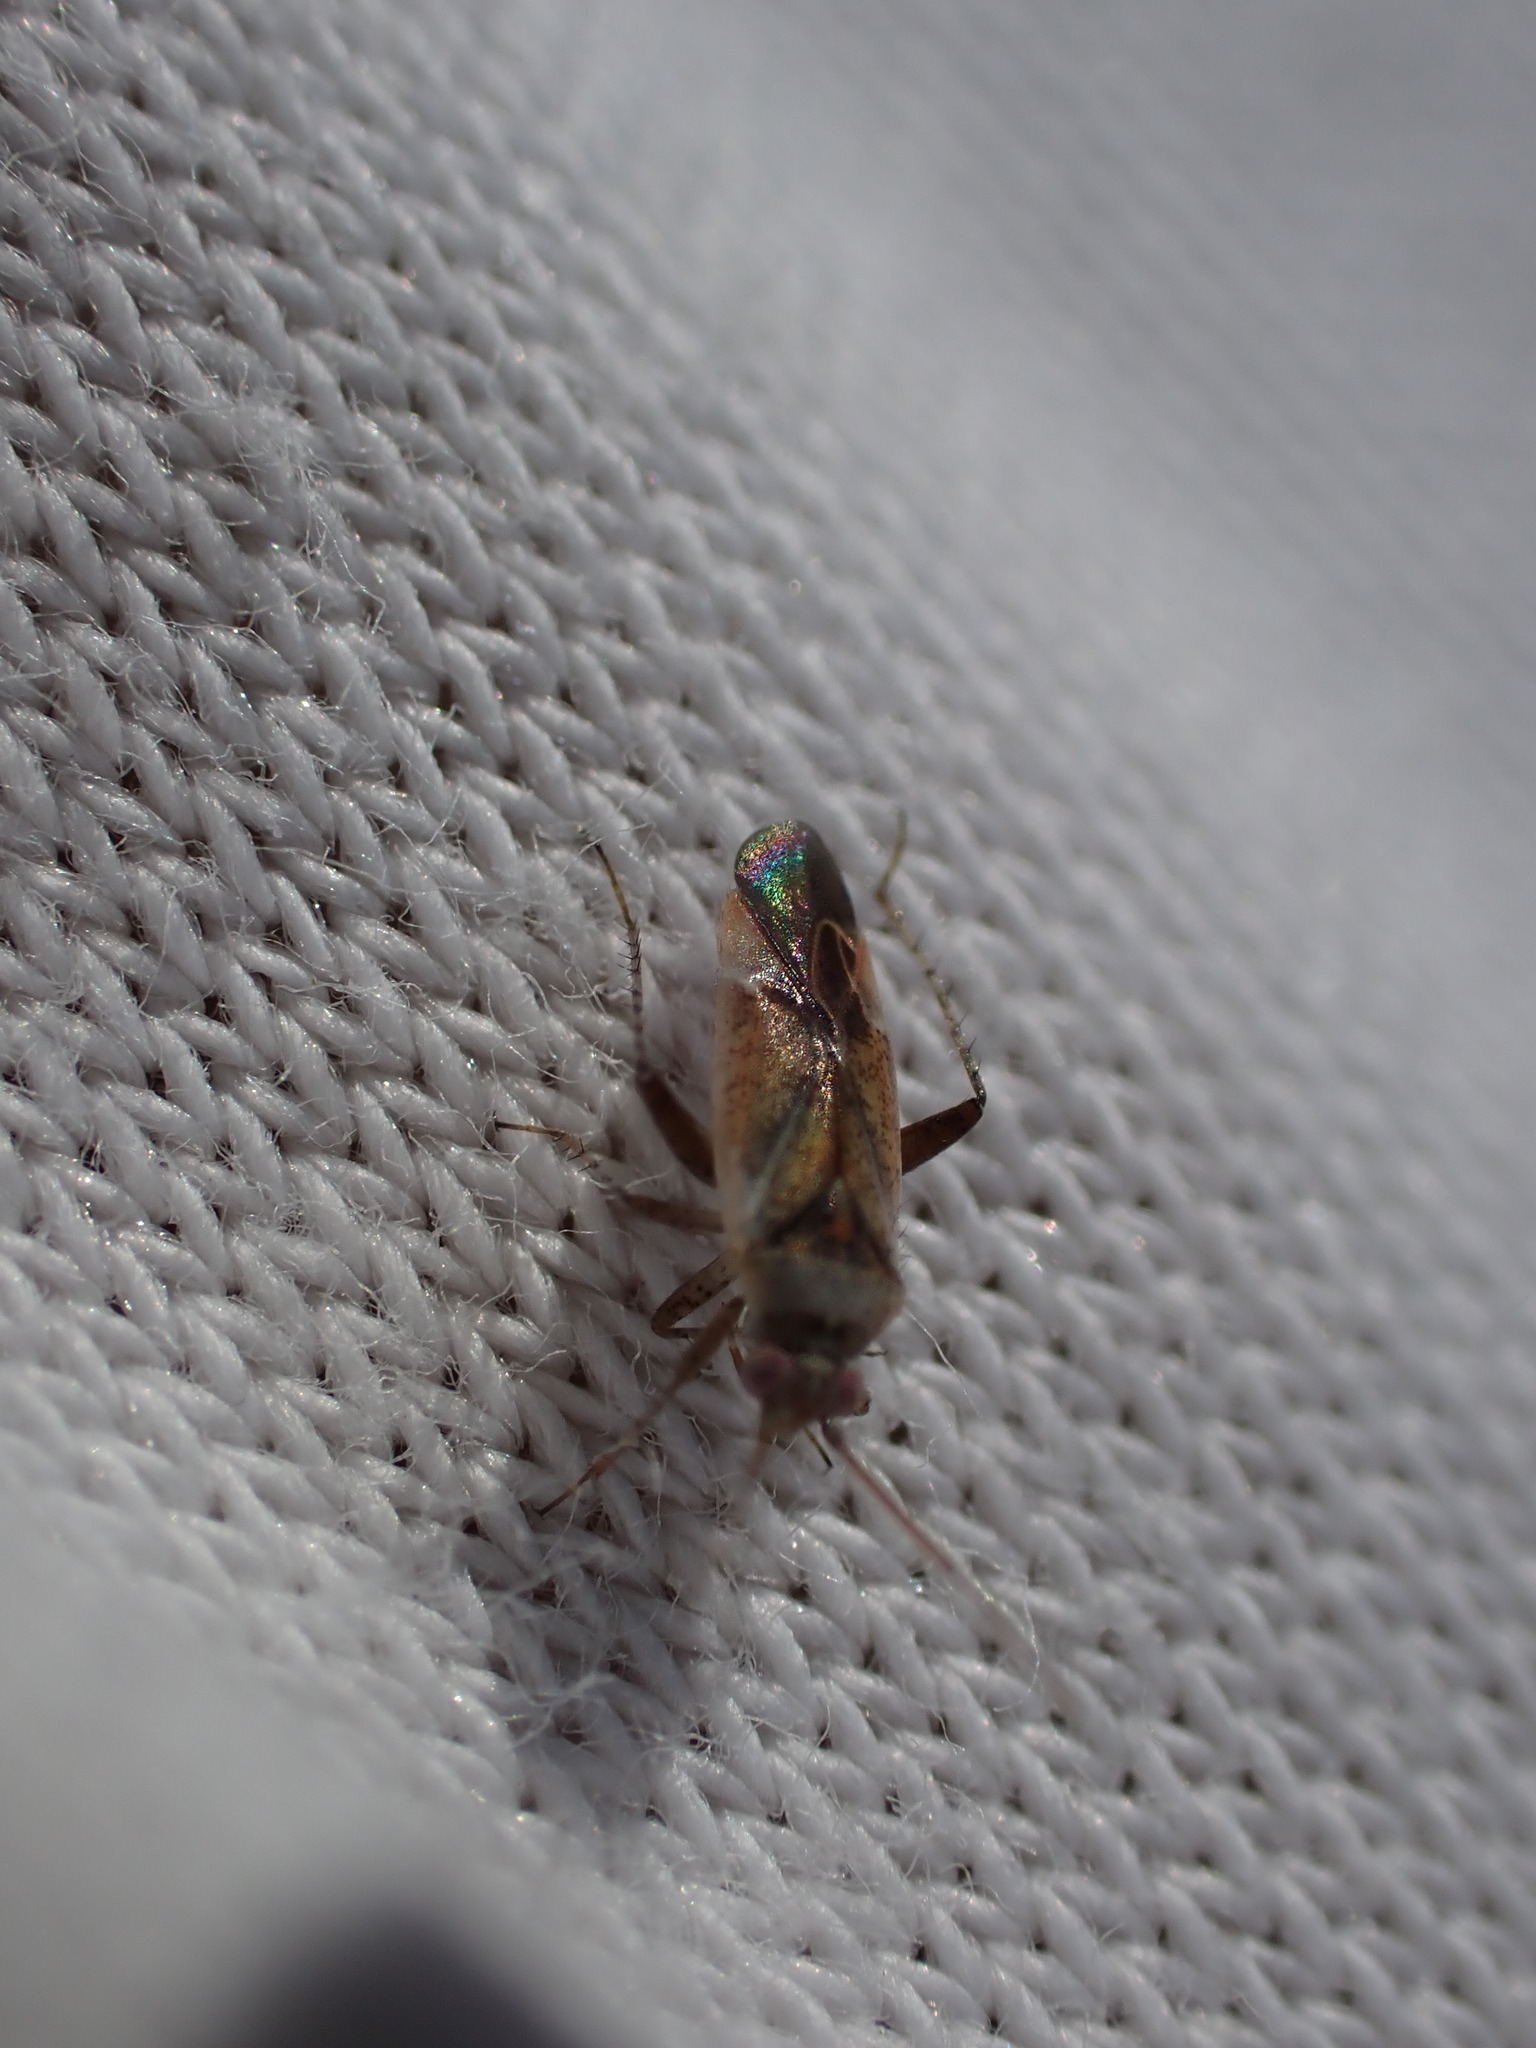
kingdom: Animalia
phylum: Arthropoda
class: Insecta
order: Hemiptera
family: Miridae
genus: Compsidolon
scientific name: Compsidolon crotchi
